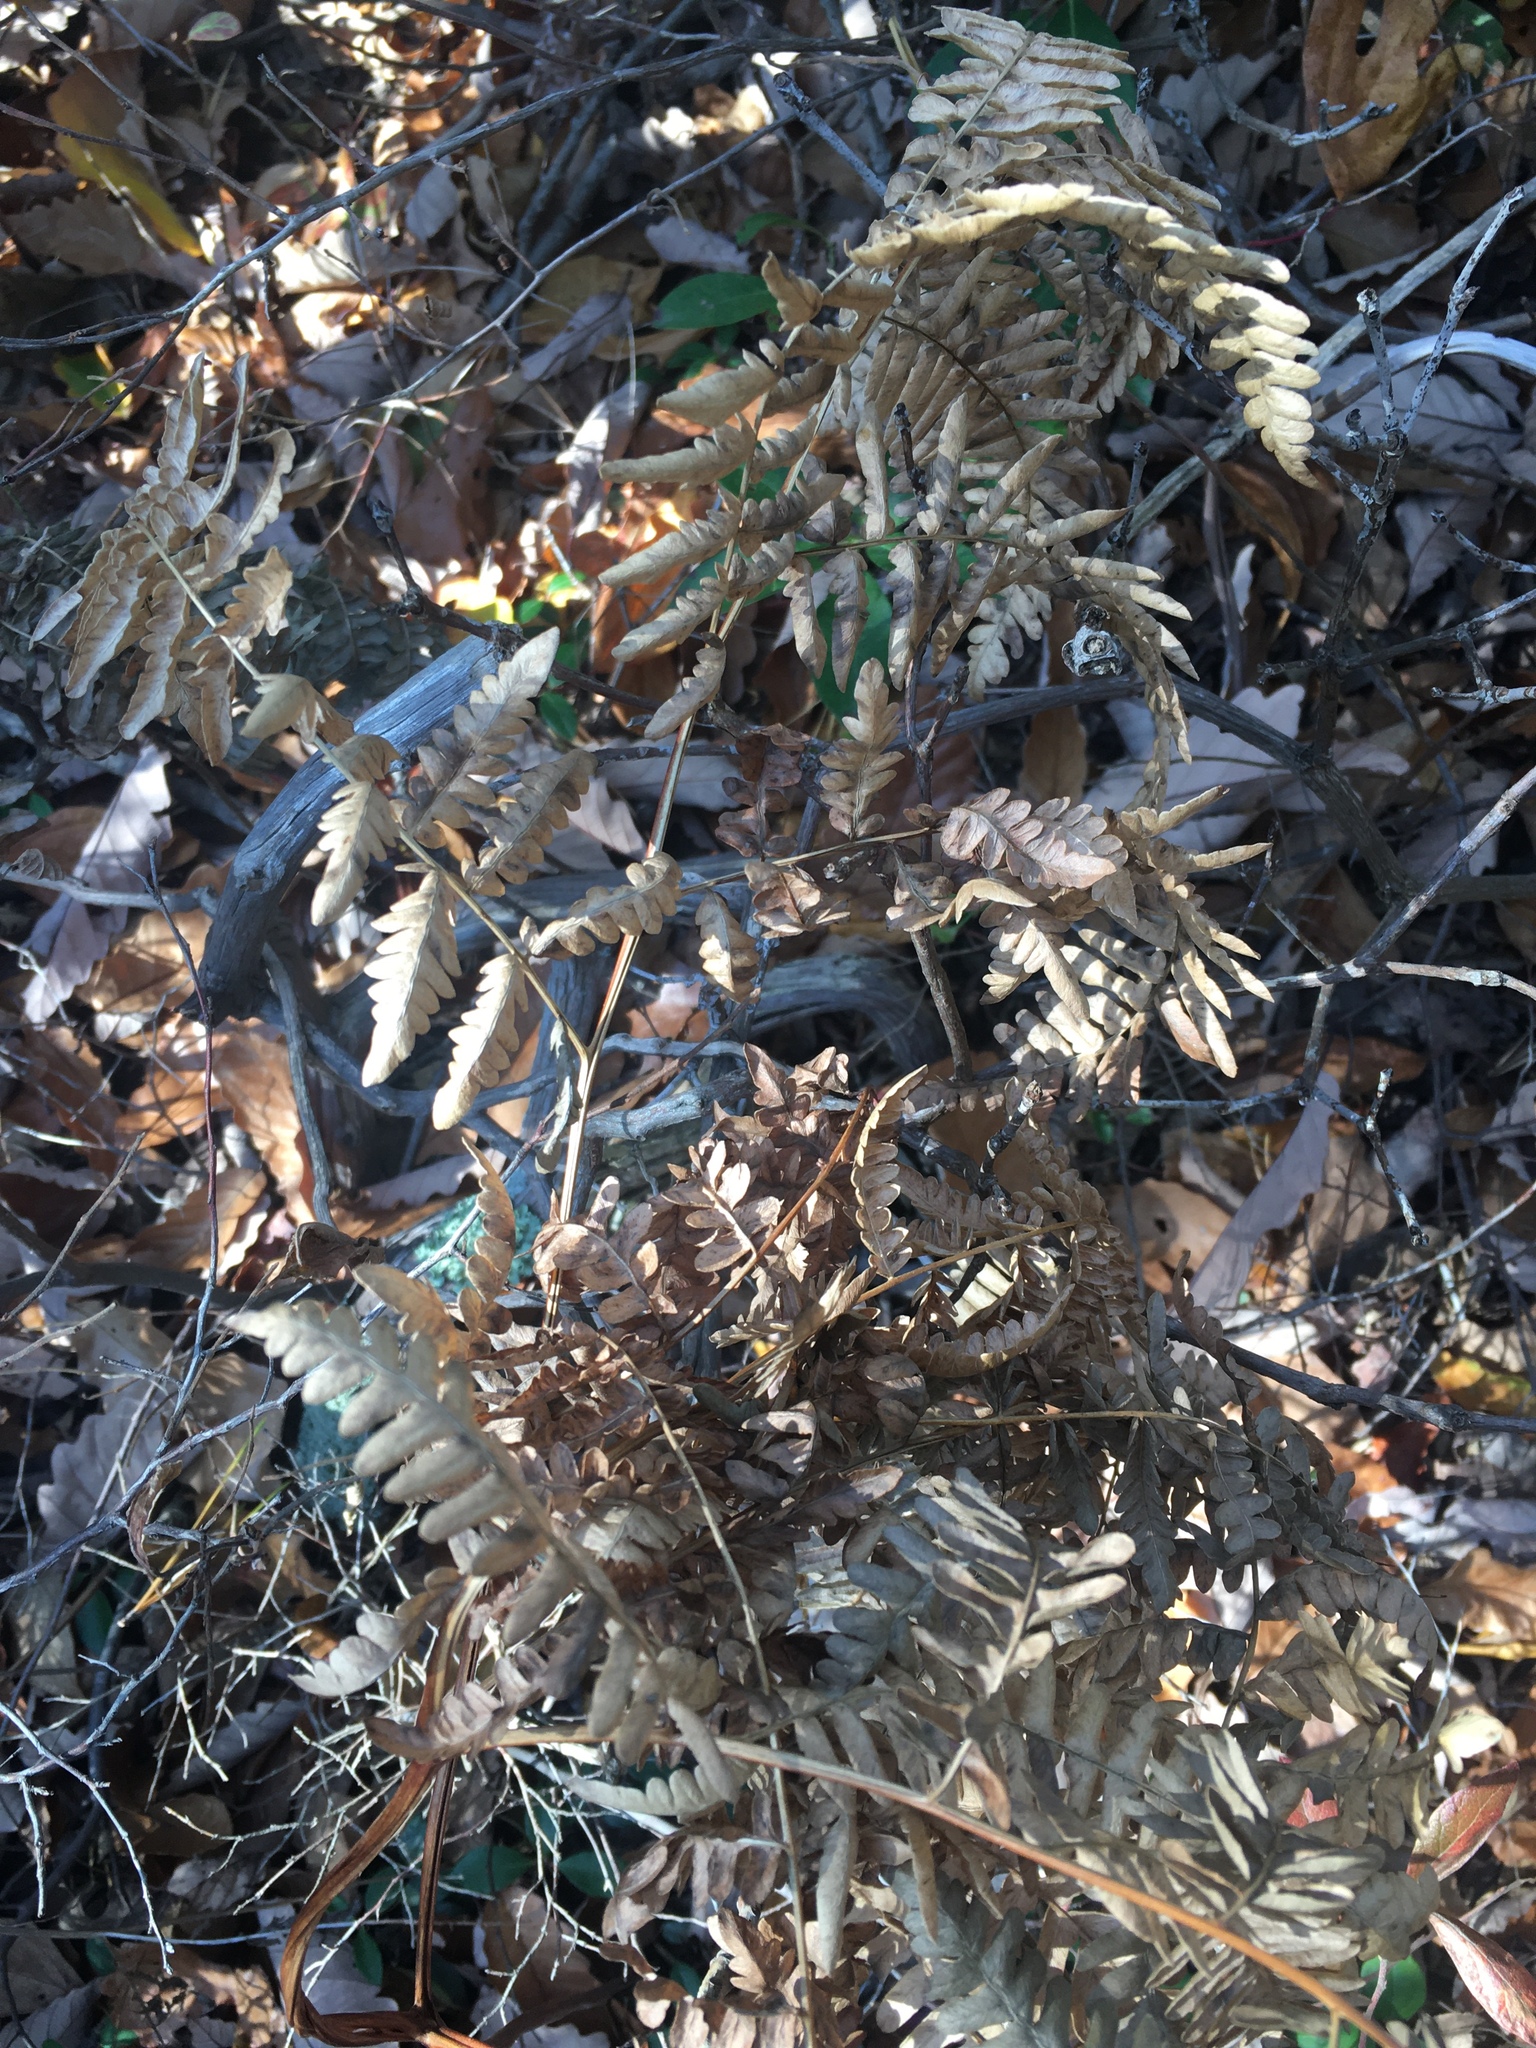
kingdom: Plantae
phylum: Tracheophyta
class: Polypodiopsida
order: Polypodiales
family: Dennstaedtiaceae
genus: Pteridium
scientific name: Pteridium aquilinum
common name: Bracken
